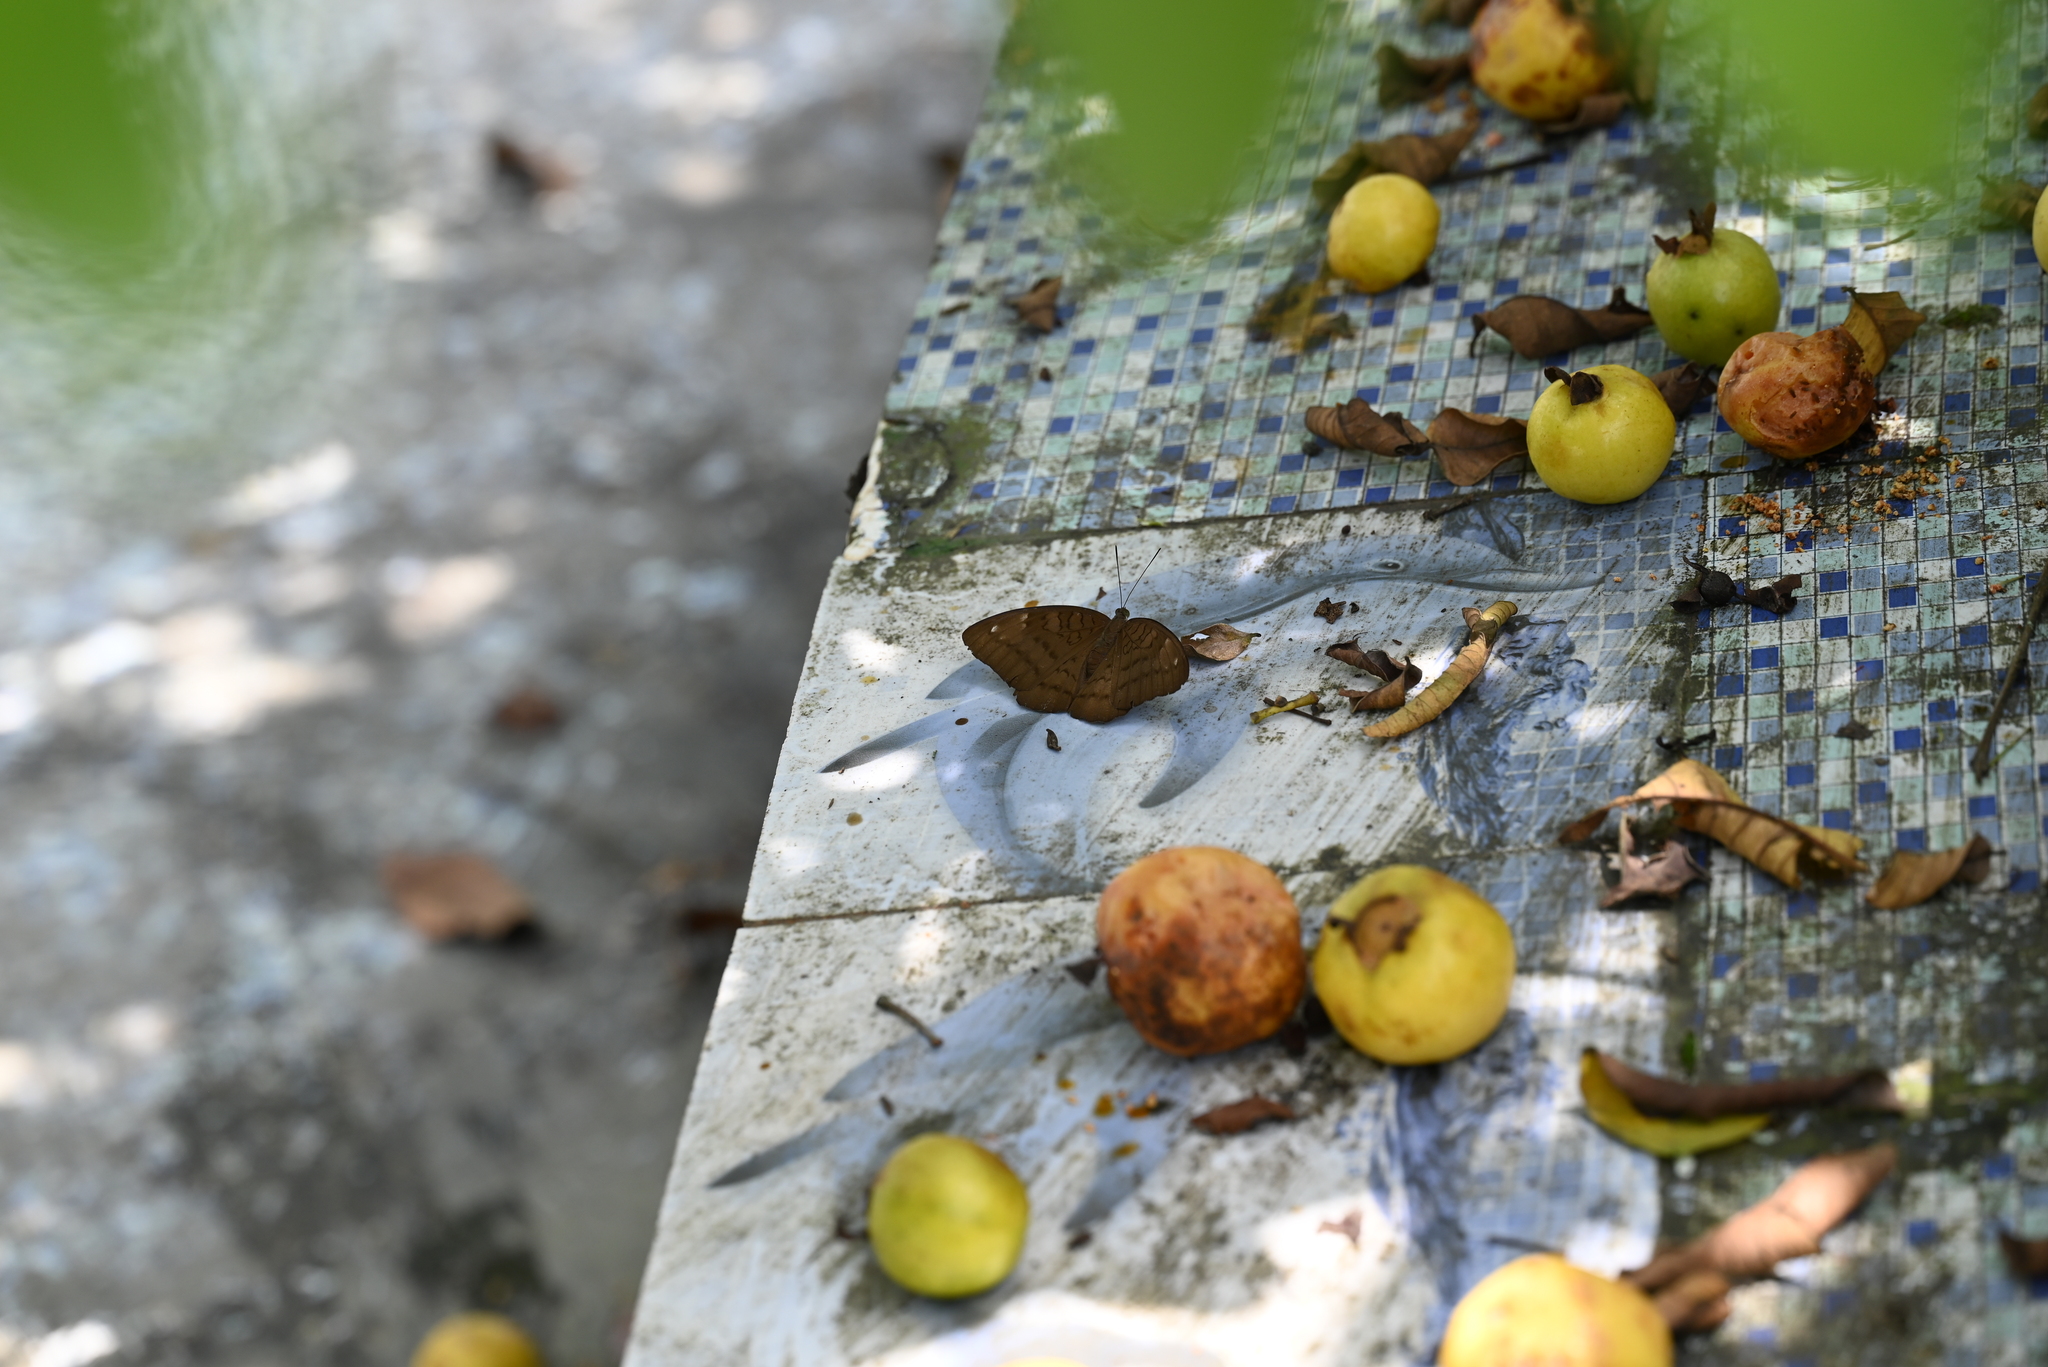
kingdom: Animalia
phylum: Arthropoda
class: Insecta
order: Lepidoptera
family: Nymphalidae
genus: Tanaecia
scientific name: Tanaecia julii
